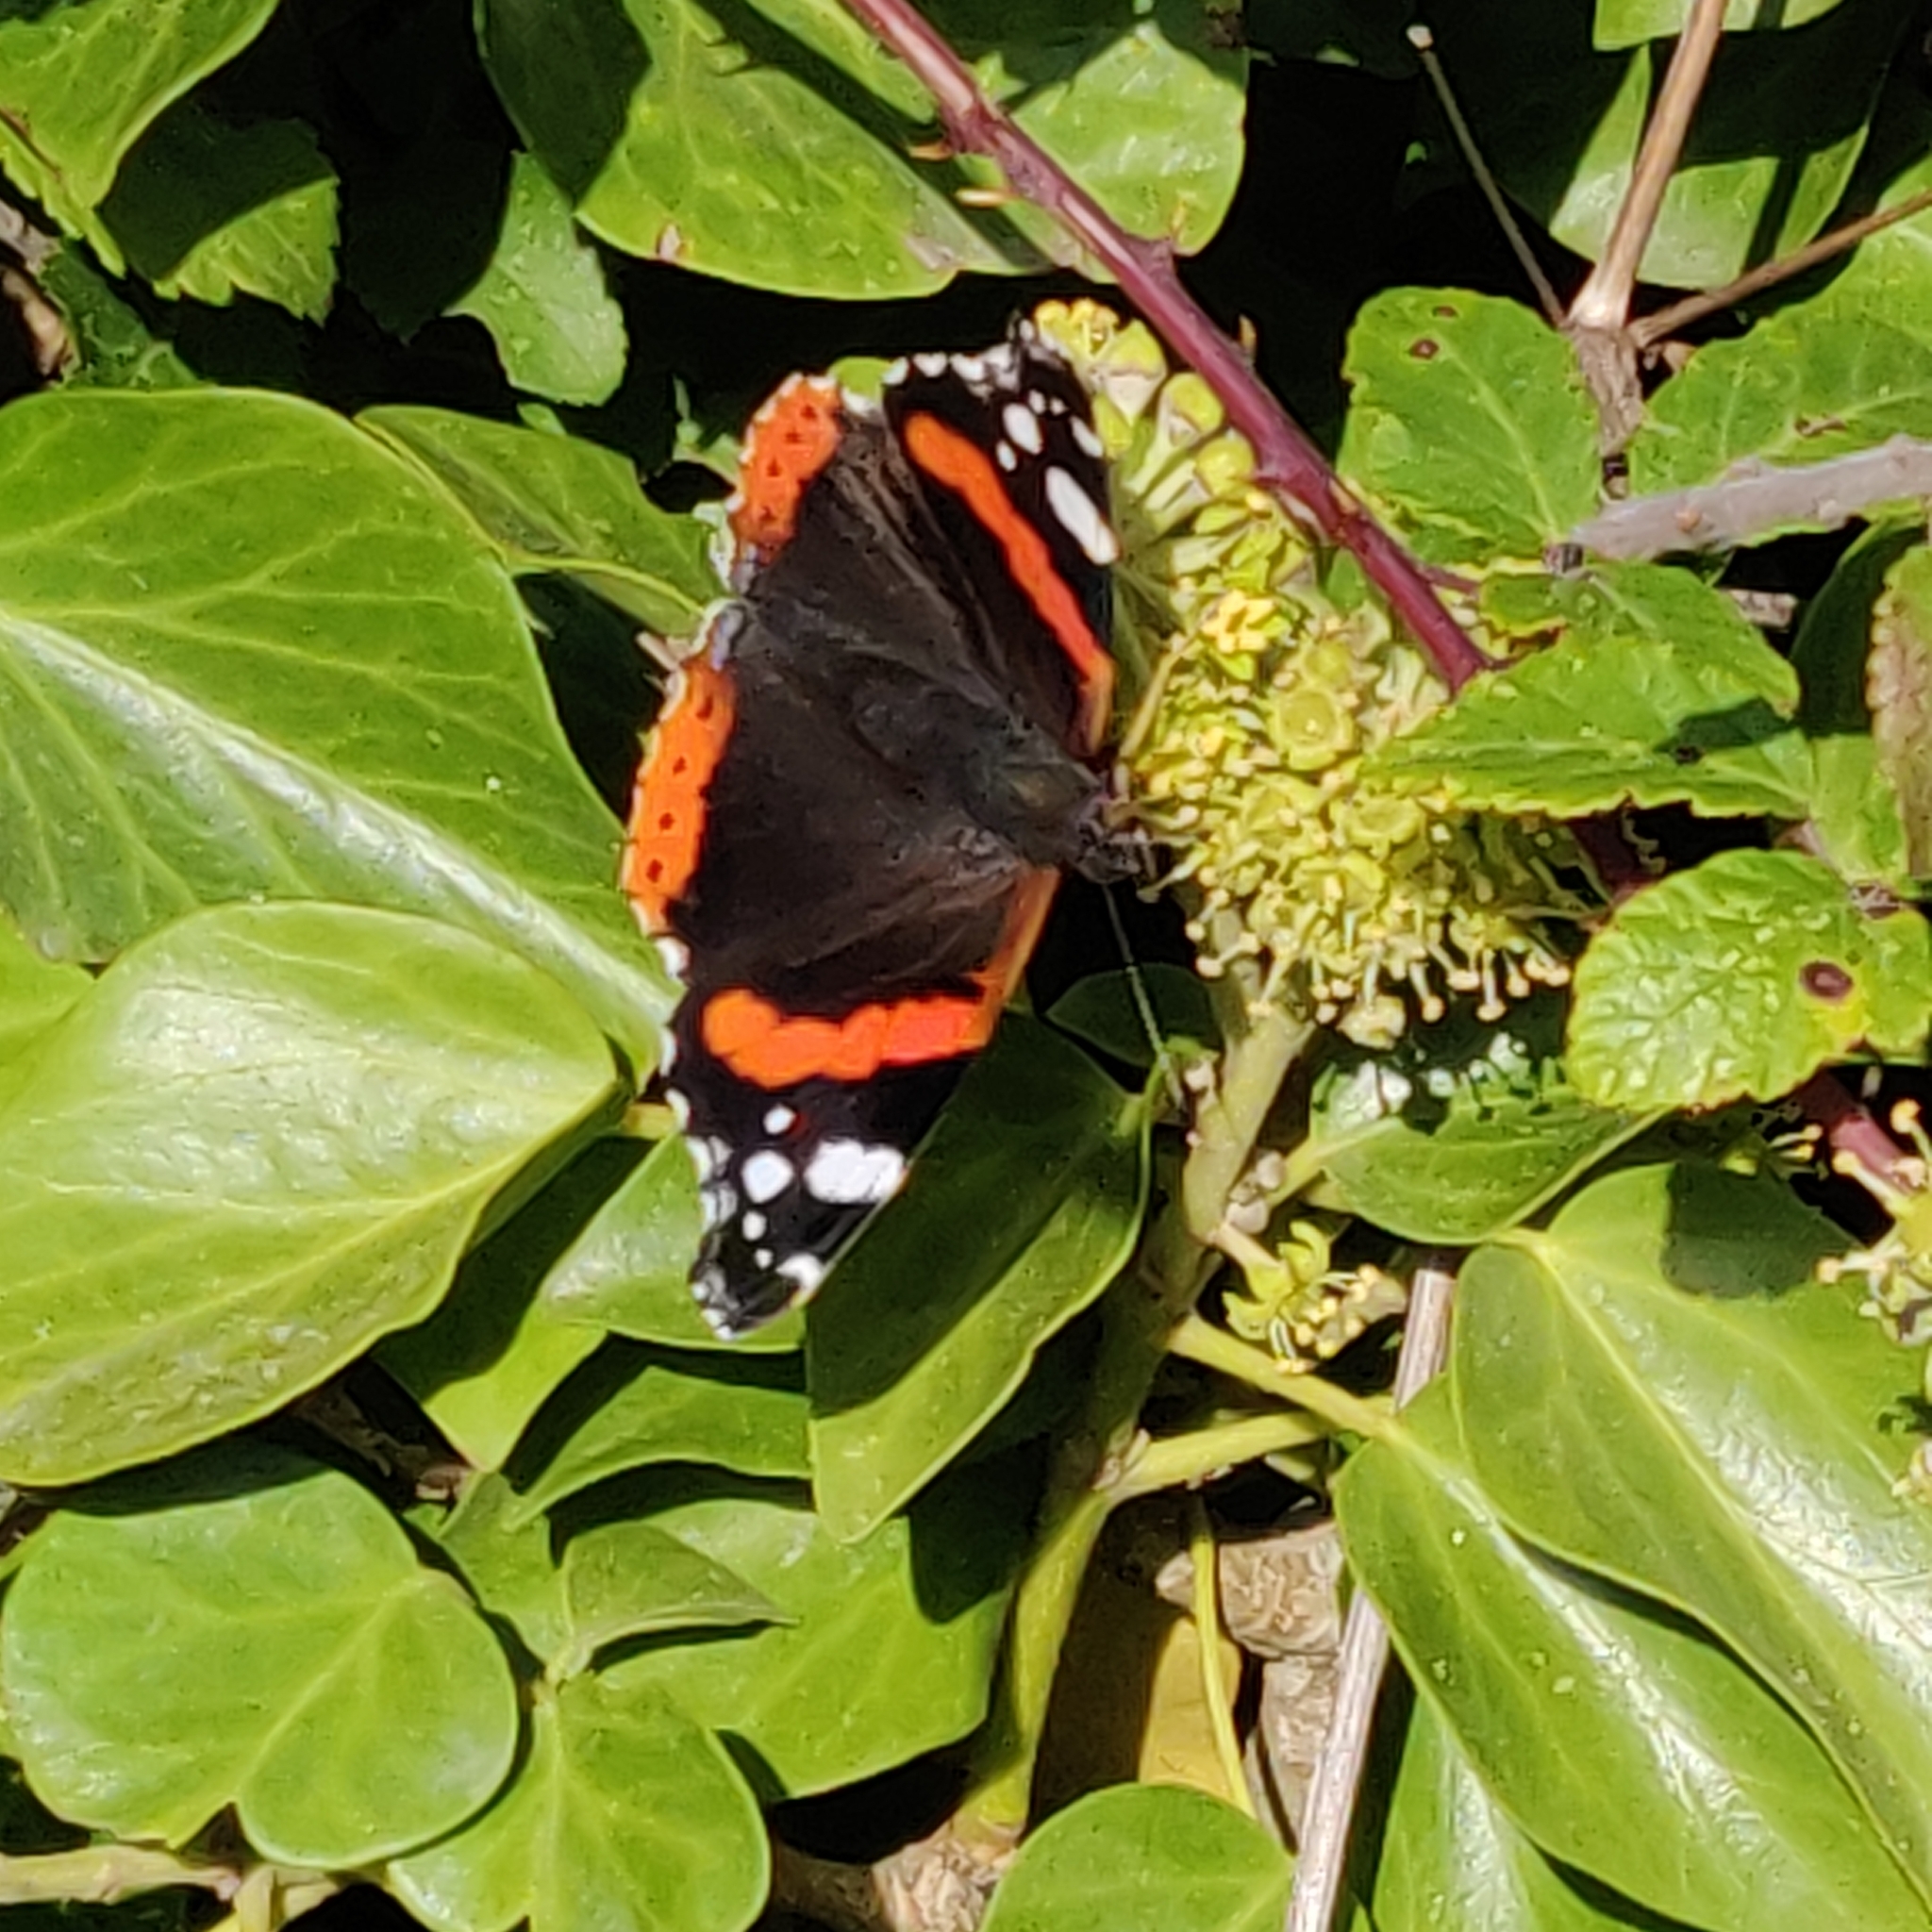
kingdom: Animalia
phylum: Arthropoda
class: Insecta
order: Lepidoptera
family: Nymphalidae
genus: Vanessa
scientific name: Vanessa atalanta
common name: Red admiral
